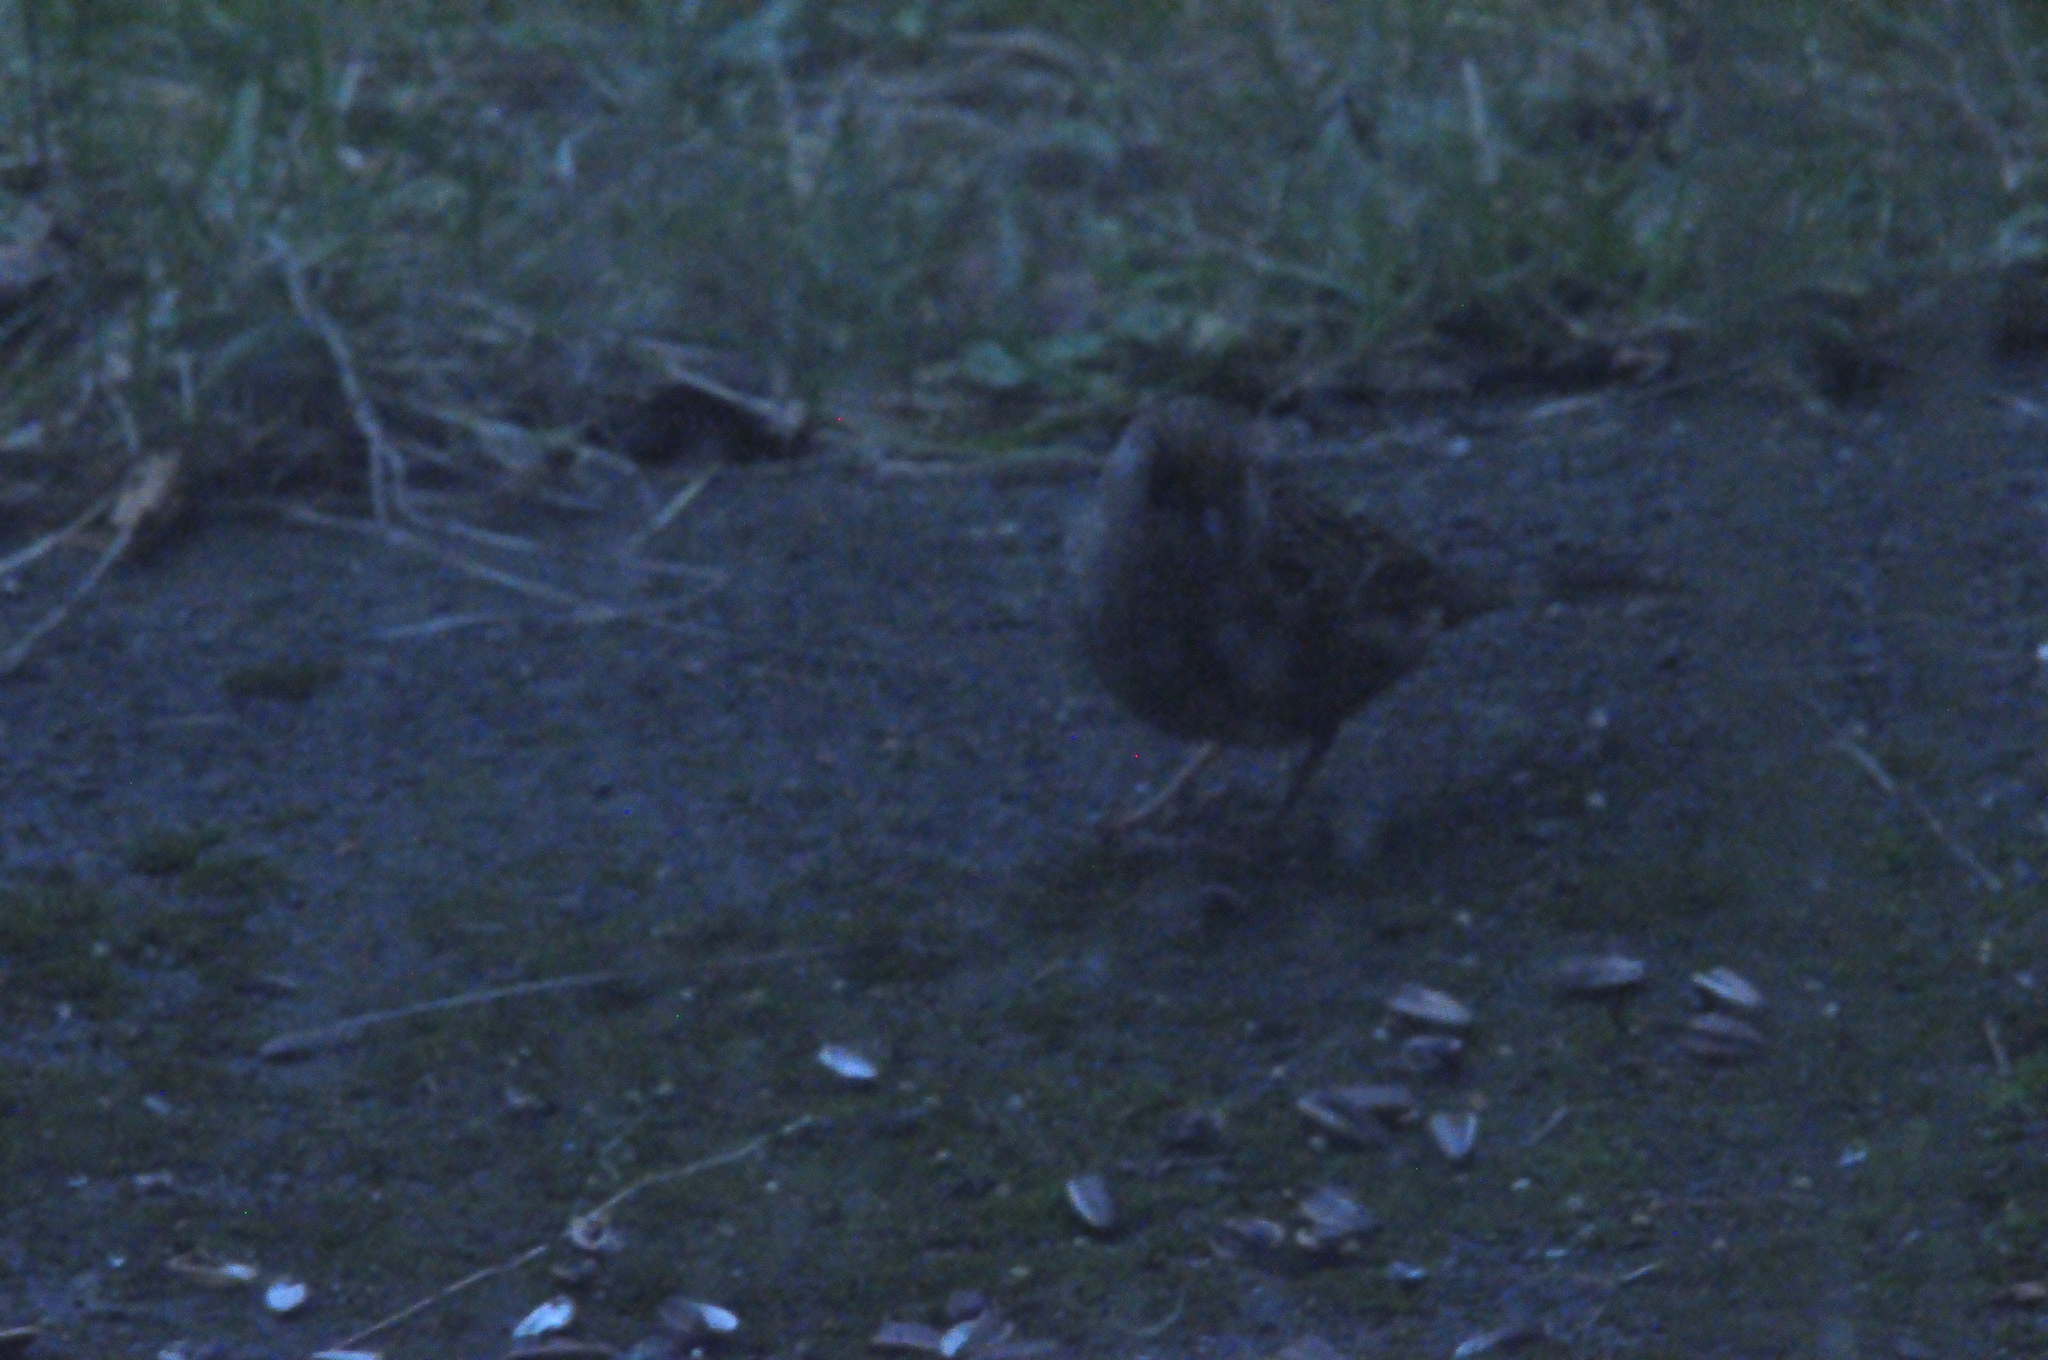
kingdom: Animalia
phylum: Chordata
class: Aves
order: Passeriformes
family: Passerellidae
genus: Zonotrichia
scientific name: Zonotrichia atricapilla
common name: Golden-crowned sparrow
